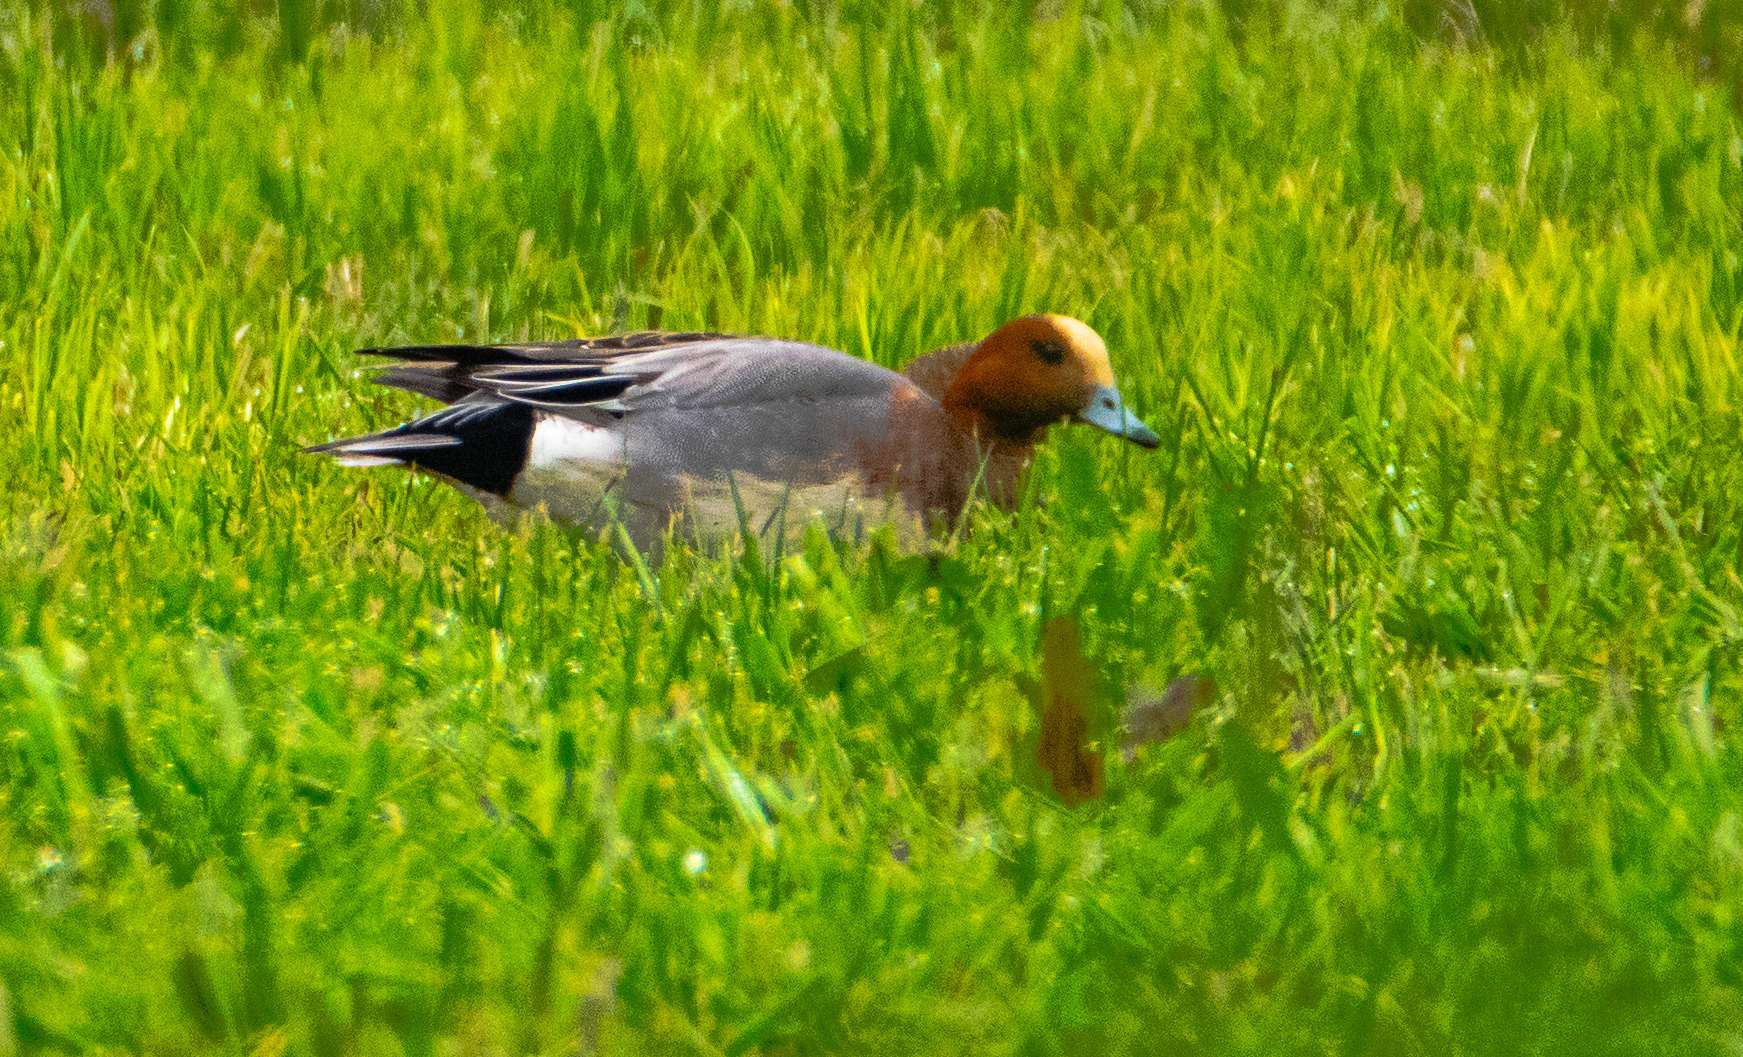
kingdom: Animalia
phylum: Chordata
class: Aves
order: Anseriformes
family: Anatidae
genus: Mareca
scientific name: Mareca penelope
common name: Eurasian wigeon
